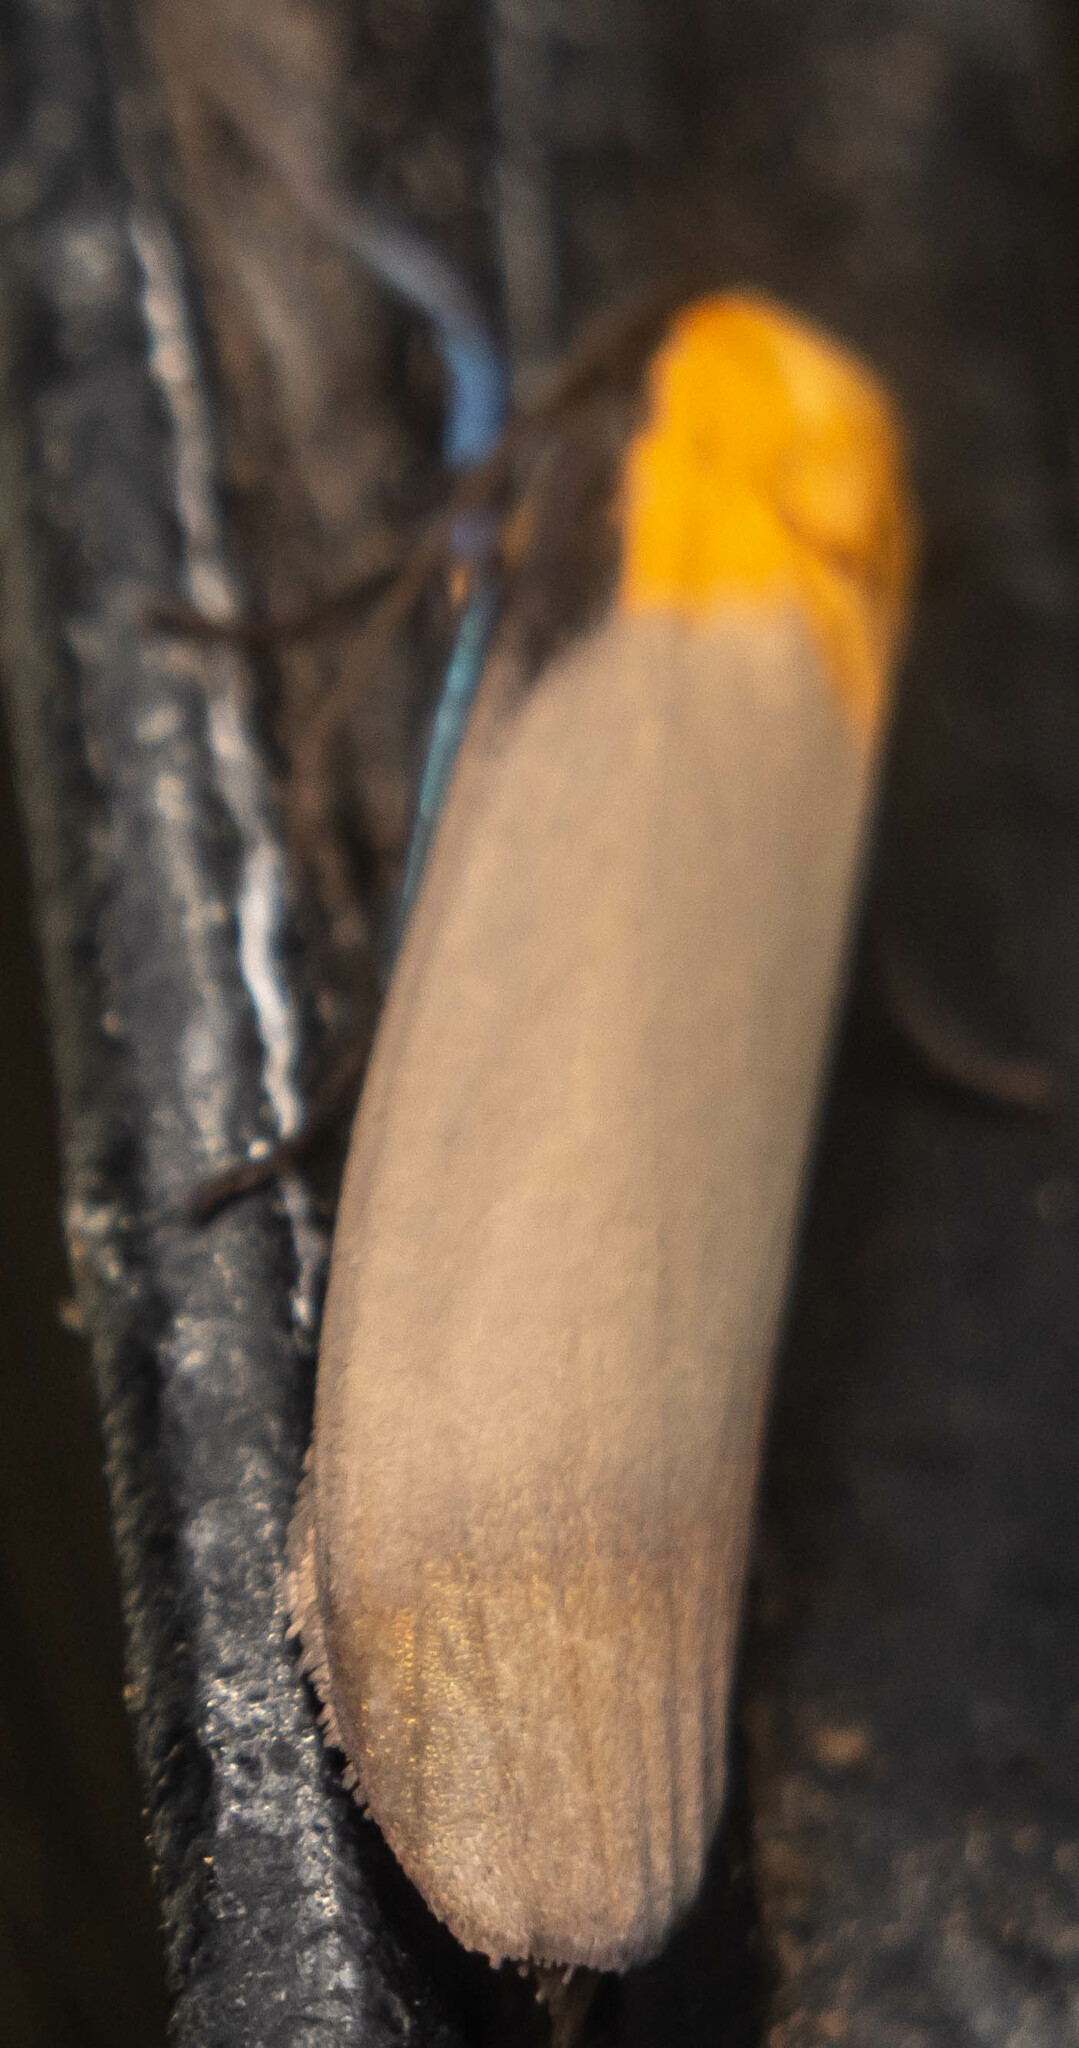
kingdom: Animalia
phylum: Arthropoda
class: Insecta
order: Lepidoptera
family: Erebidae
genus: Lithosia
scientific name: Lithosia quadra
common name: Four-spotted footman
